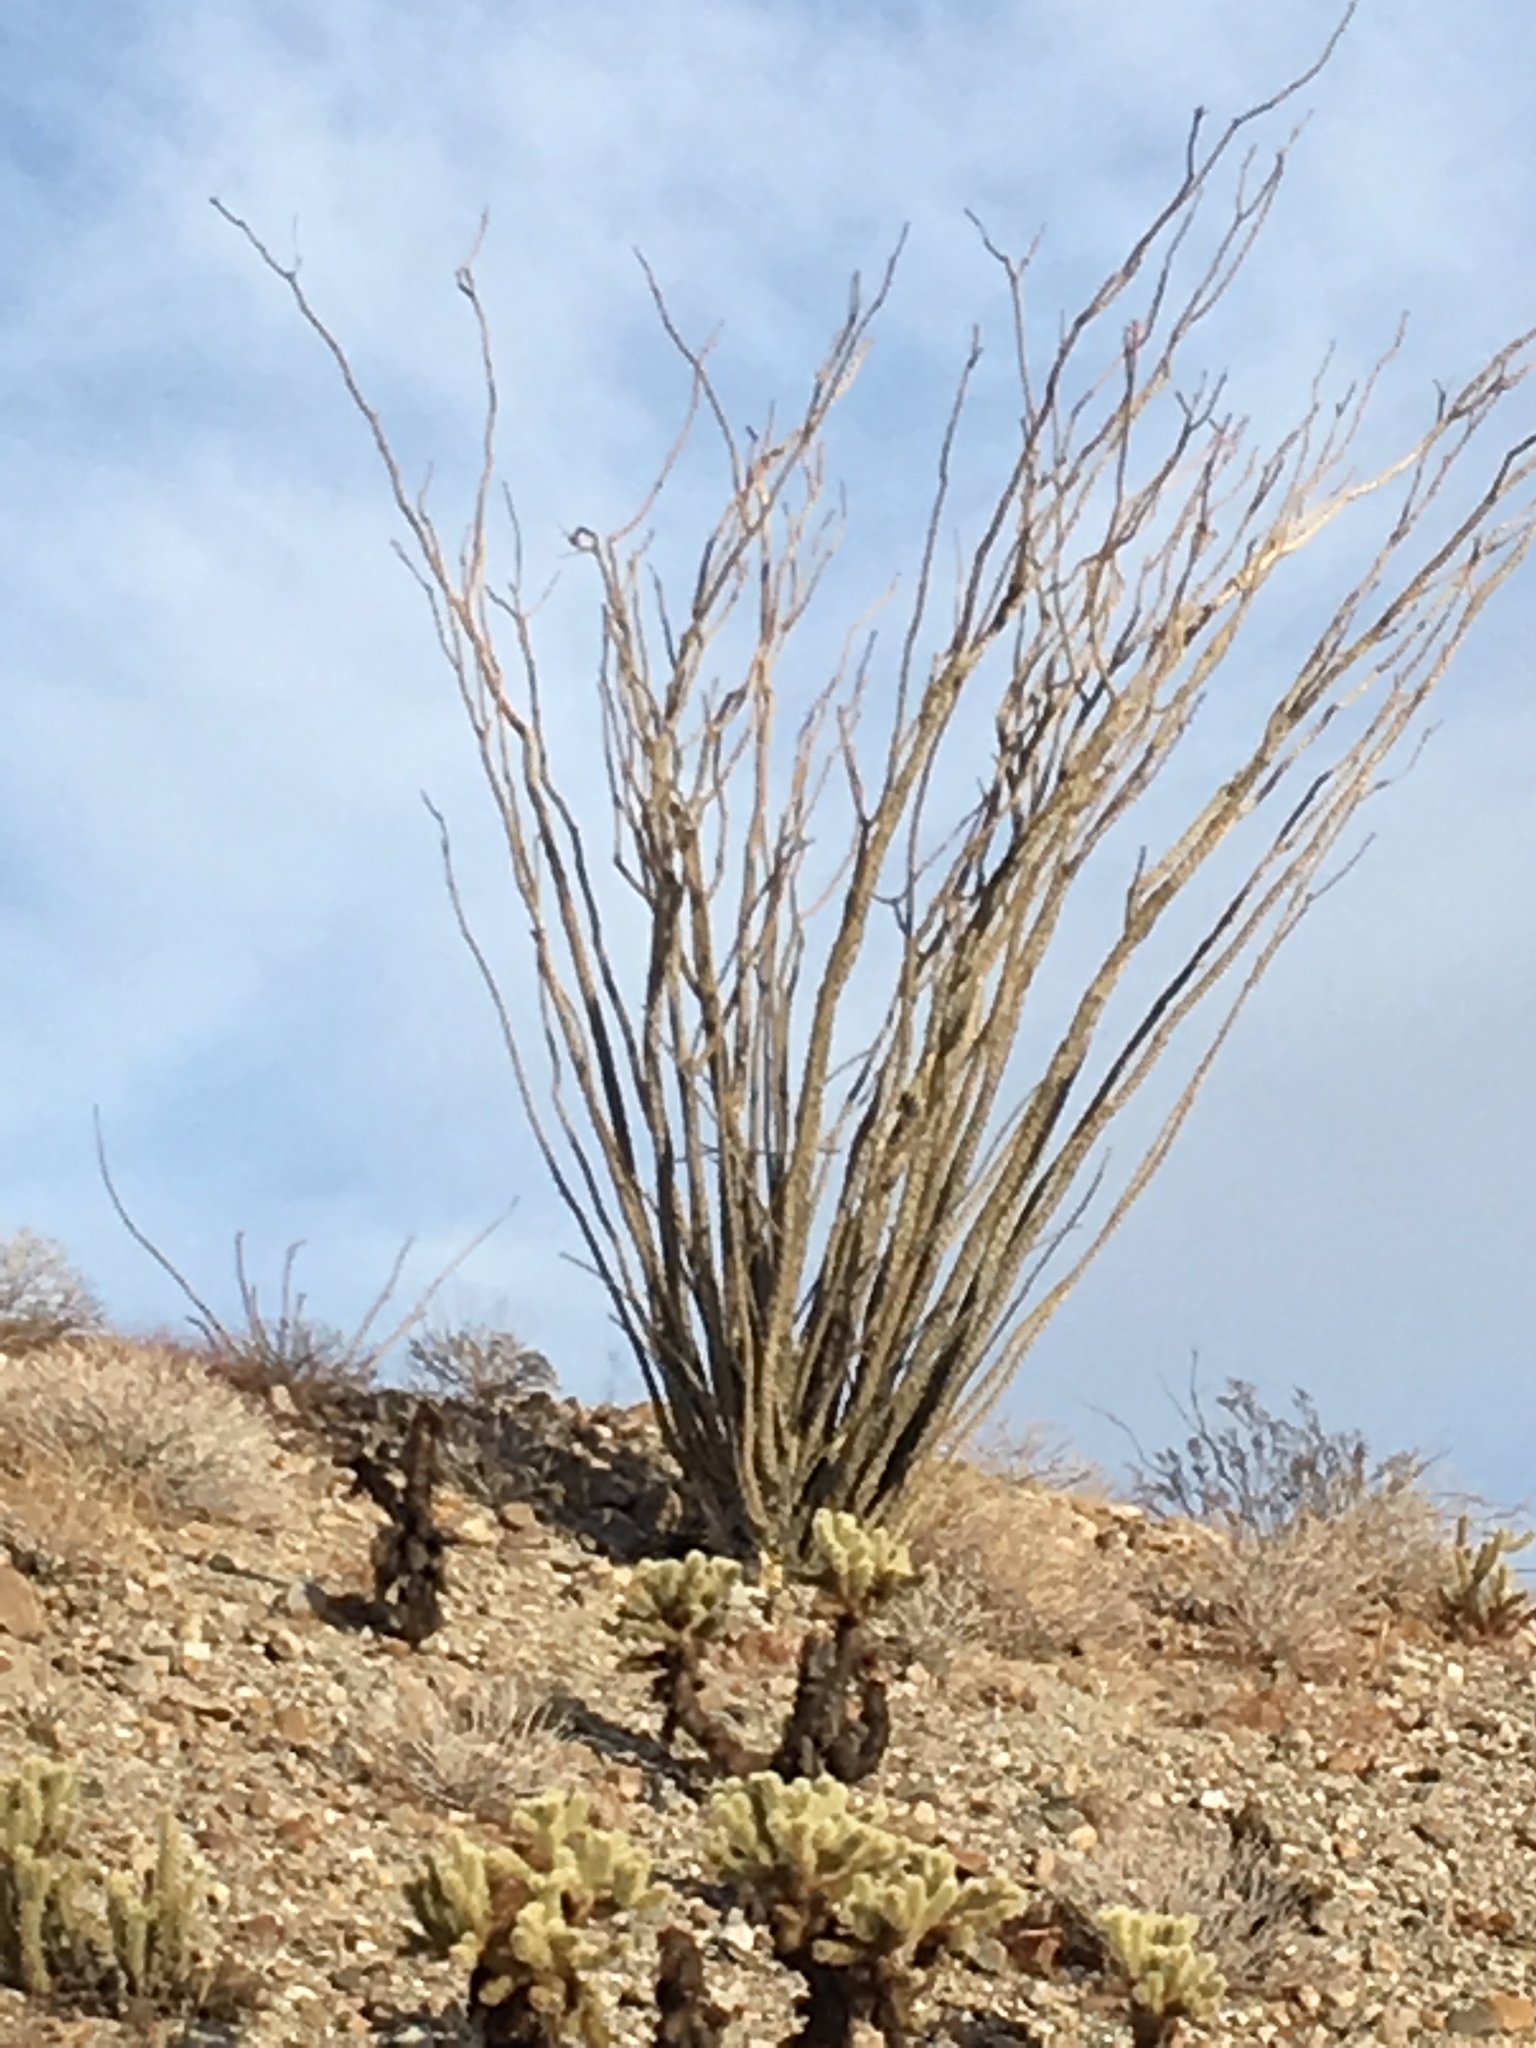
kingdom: Plantae
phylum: Tracheophyta
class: Magnoliopsida
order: Ericales
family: Fouquieriaceae
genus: Fouquieria
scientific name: Fouquieria splendens
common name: Vine-cactus
